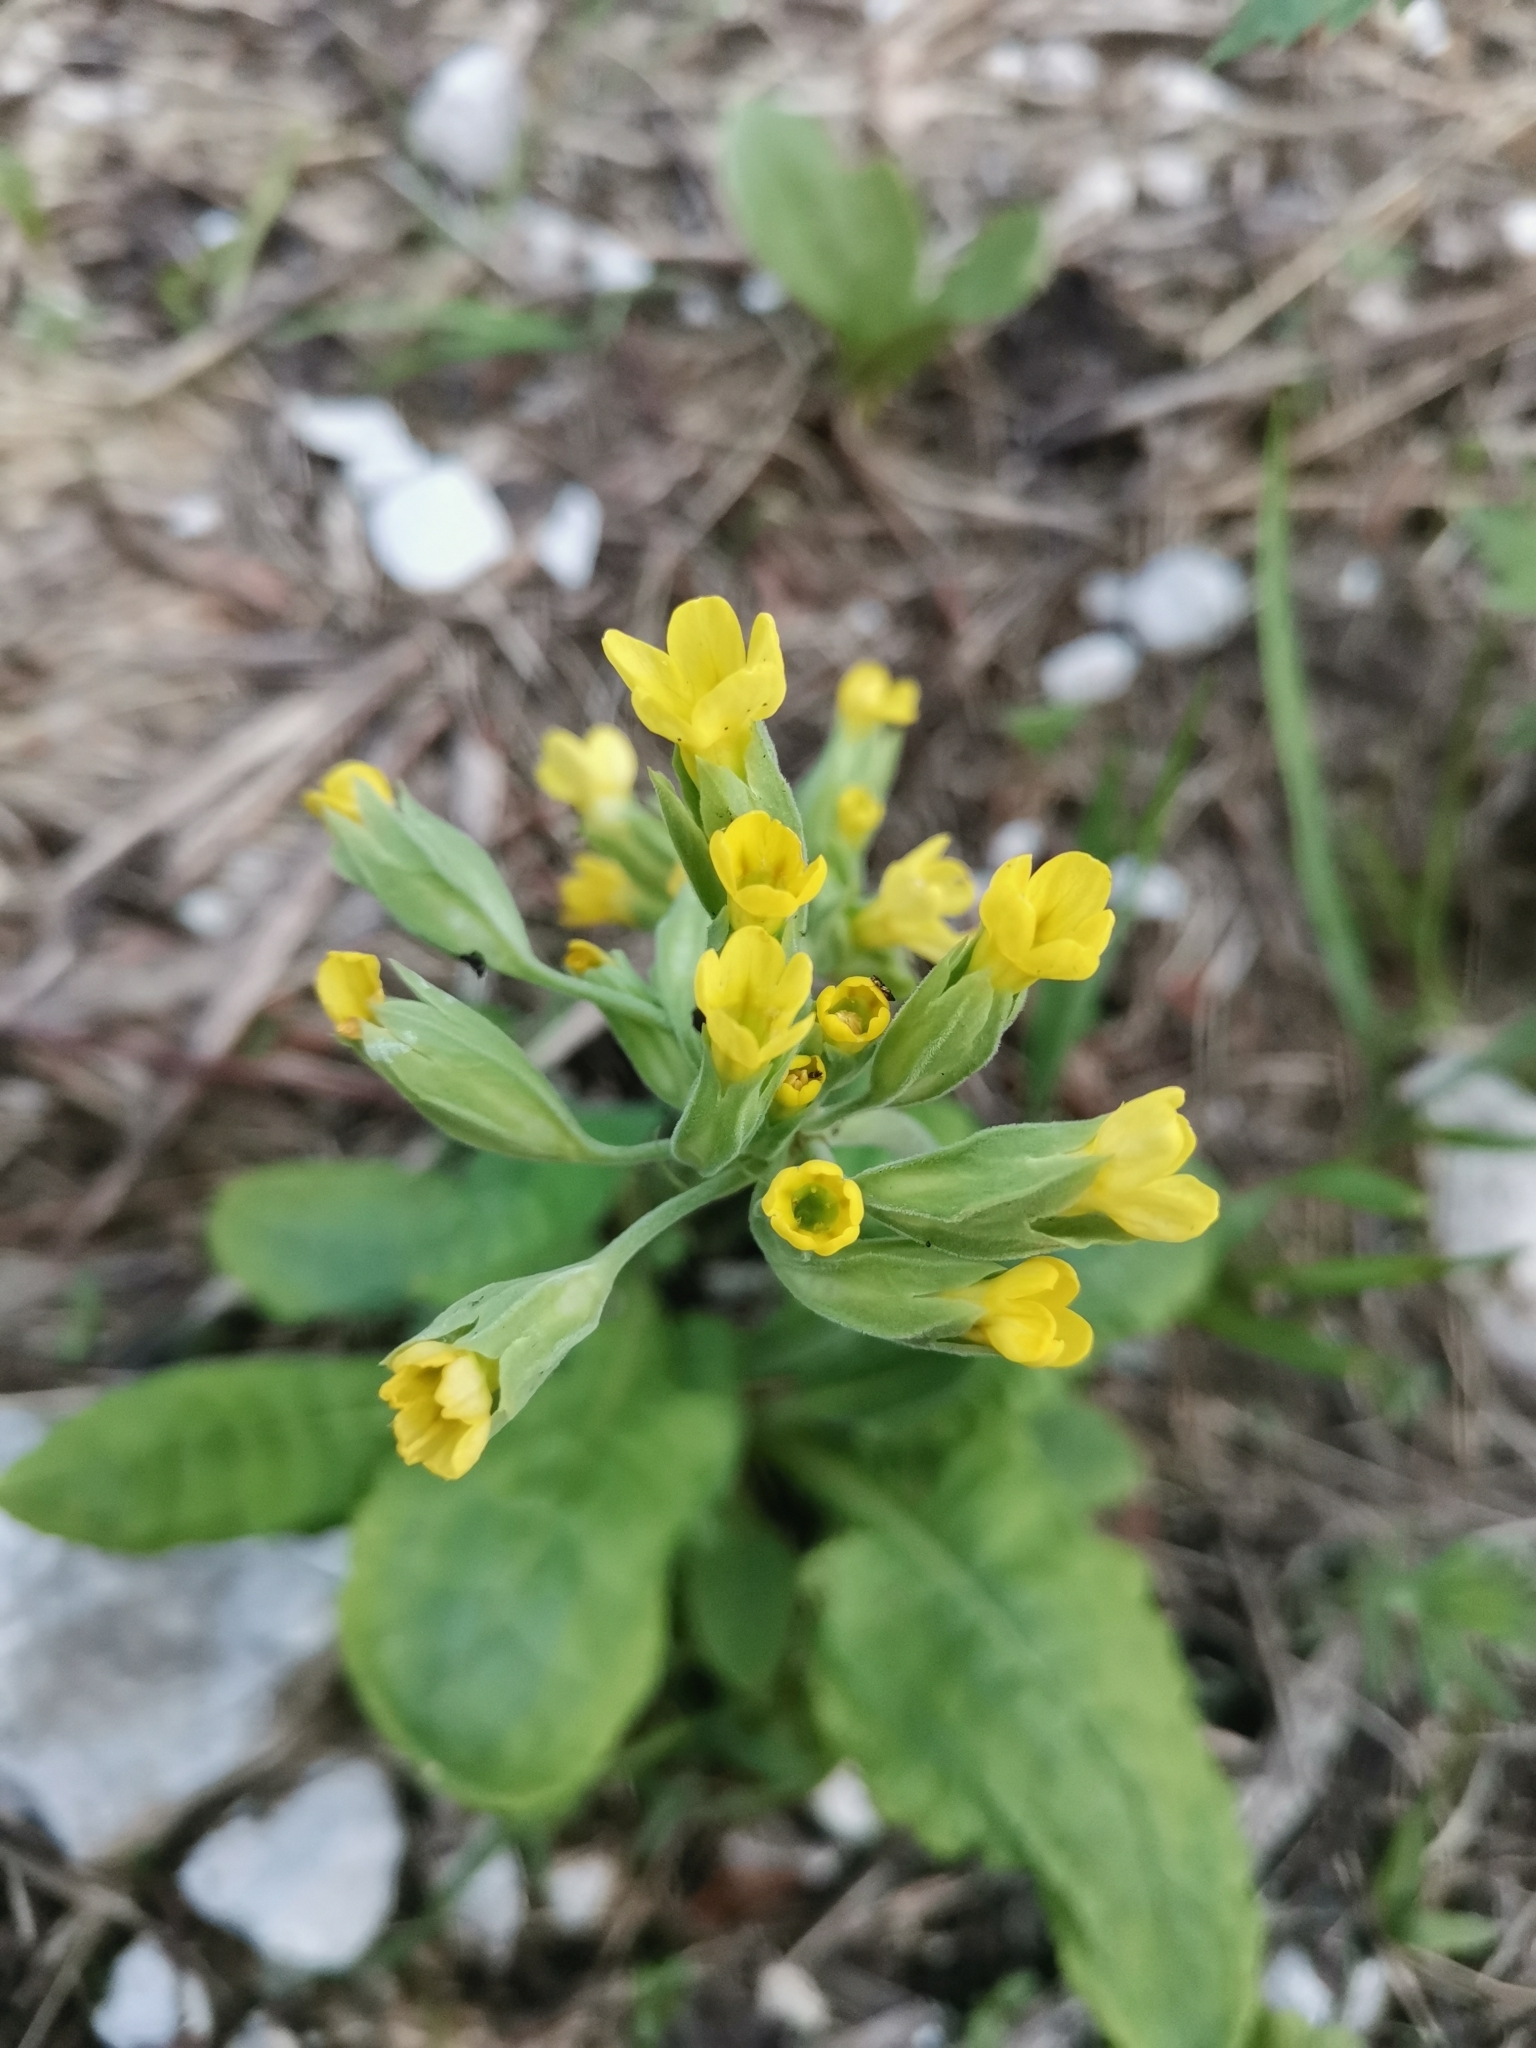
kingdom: Plantae
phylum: Tracheophyta
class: Magnoliopsida
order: Ericales
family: Primulaceae
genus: Primula
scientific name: Primula veris
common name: Cowslip
